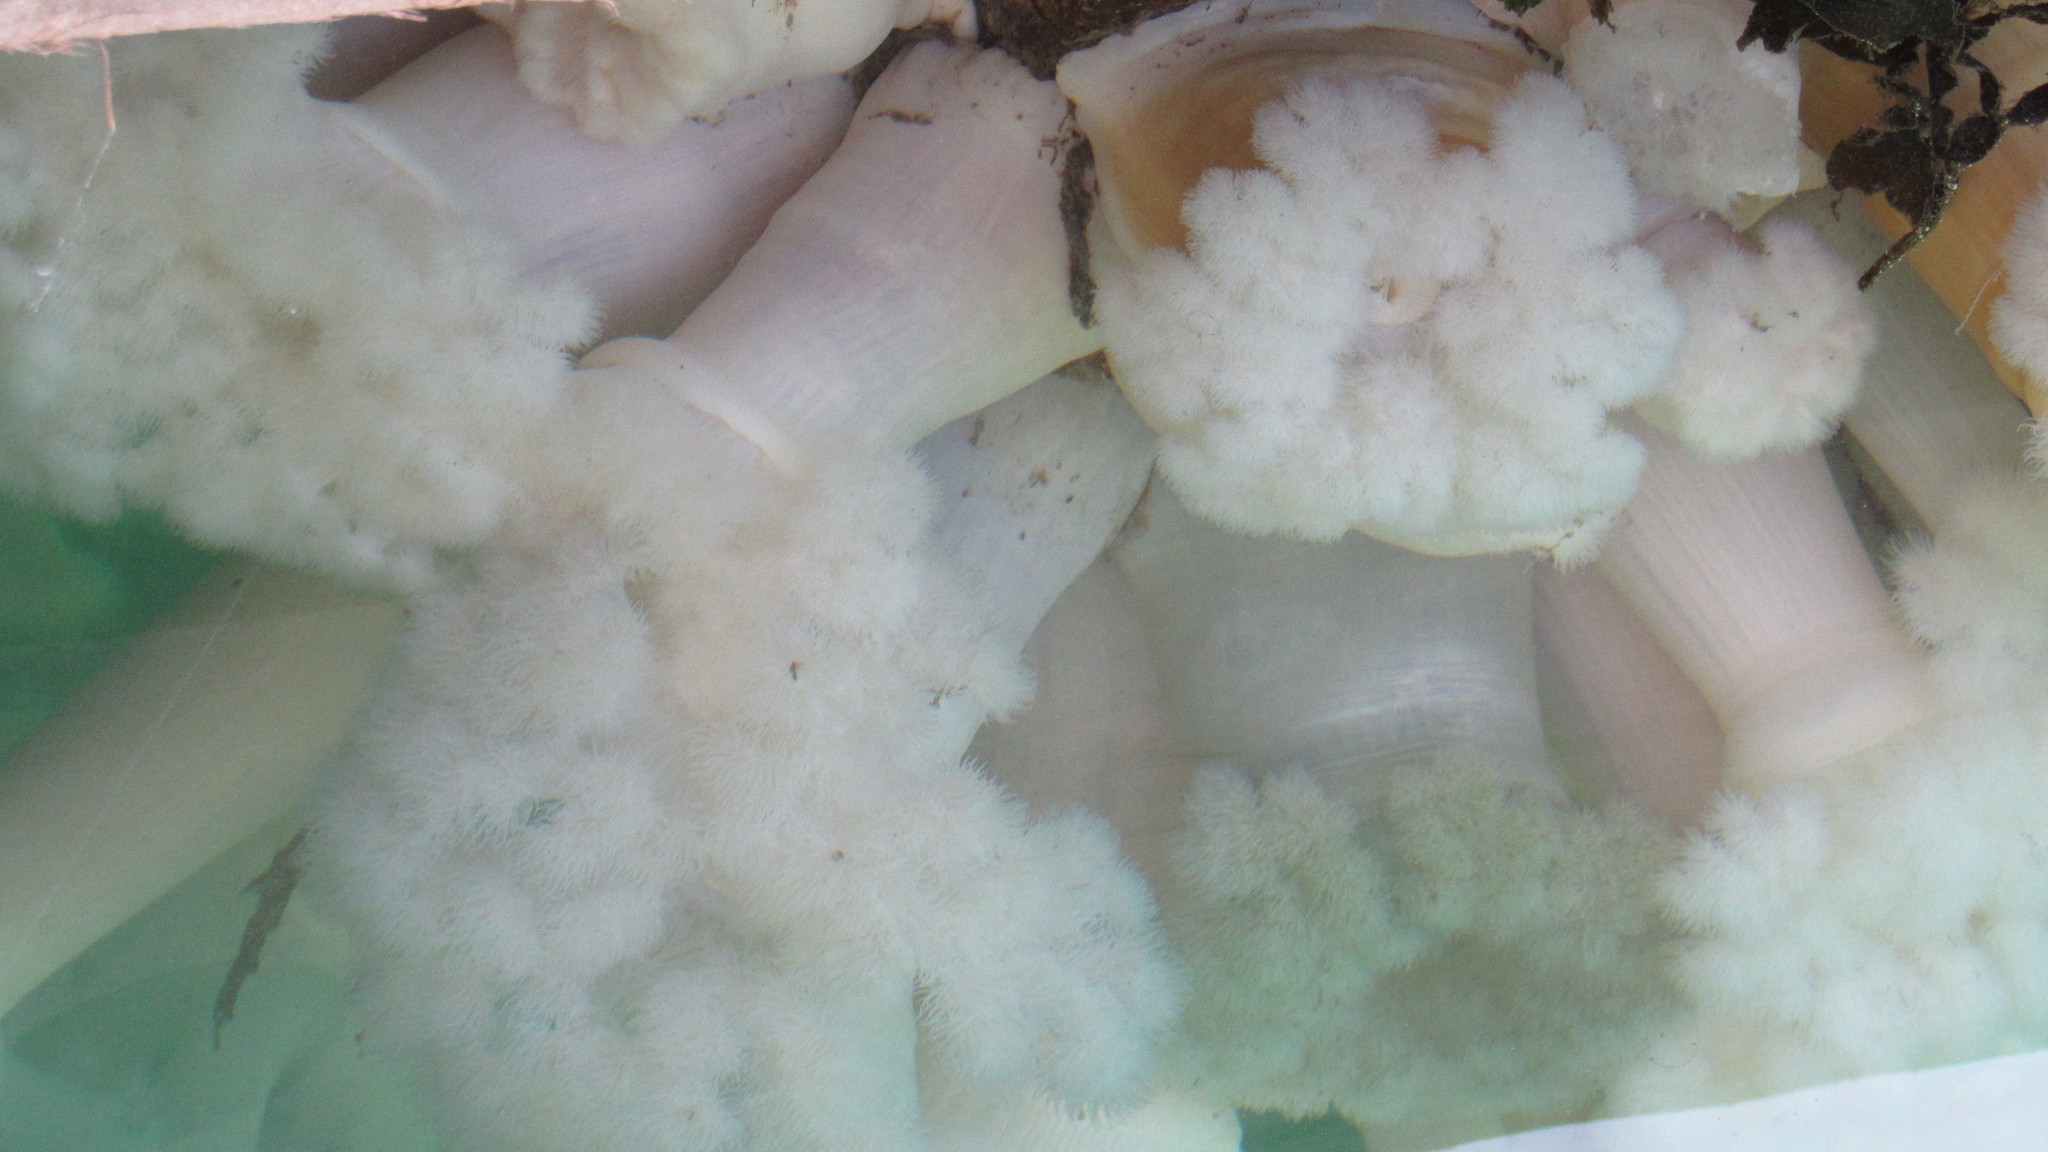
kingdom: Animalia
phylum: Cnidaria
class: Anthozoa
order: Actiniaria
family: Metridiidae
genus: Metridium
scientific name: Metridium farcimen
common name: Gigantic anemone
